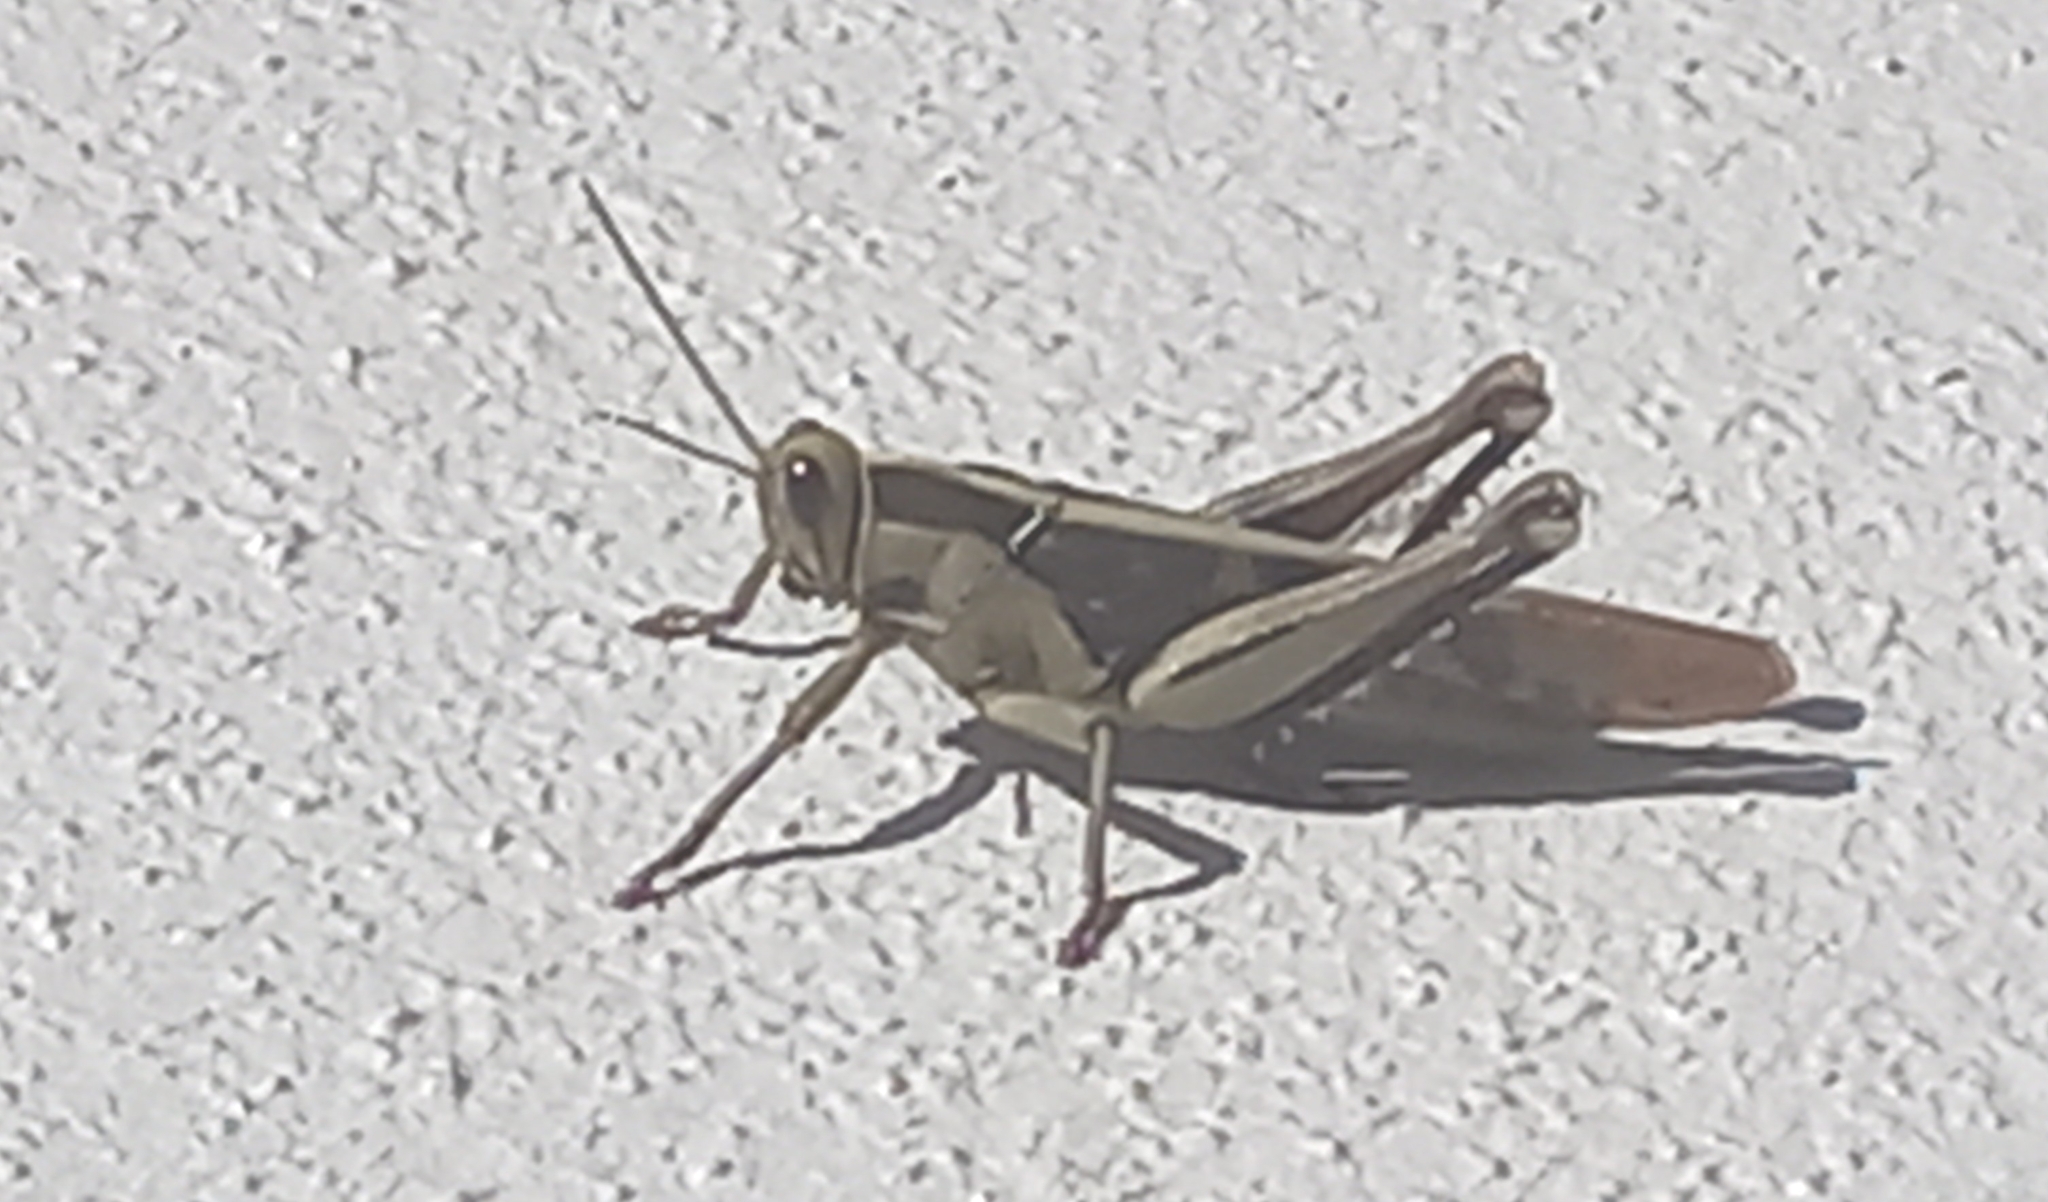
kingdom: Animalia
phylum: Arthropoda
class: Insecta
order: Orthoptera
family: Acrididae
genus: Acanthacris
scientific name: Acanthacris ruficornis
